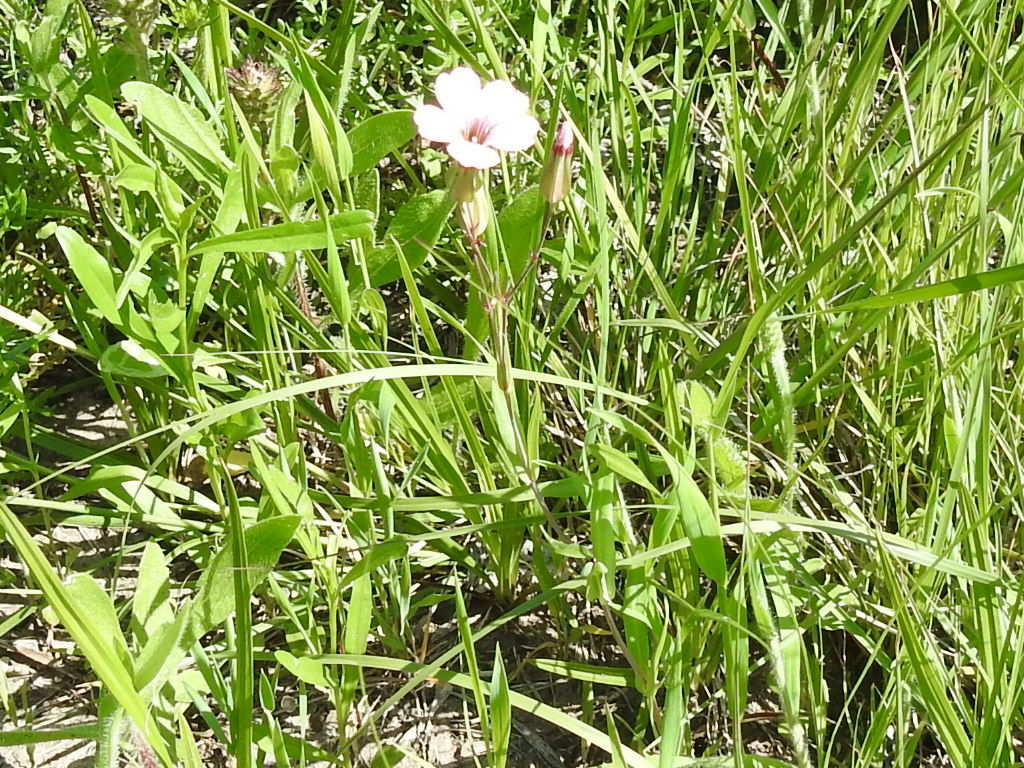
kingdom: Plantae
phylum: Tracheophyta
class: Magnoliopsida
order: Caryophyllales
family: Caryophyllaceae
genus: Gypsophila
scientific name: Gypsophila vaccaria
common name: Cow soapwort
